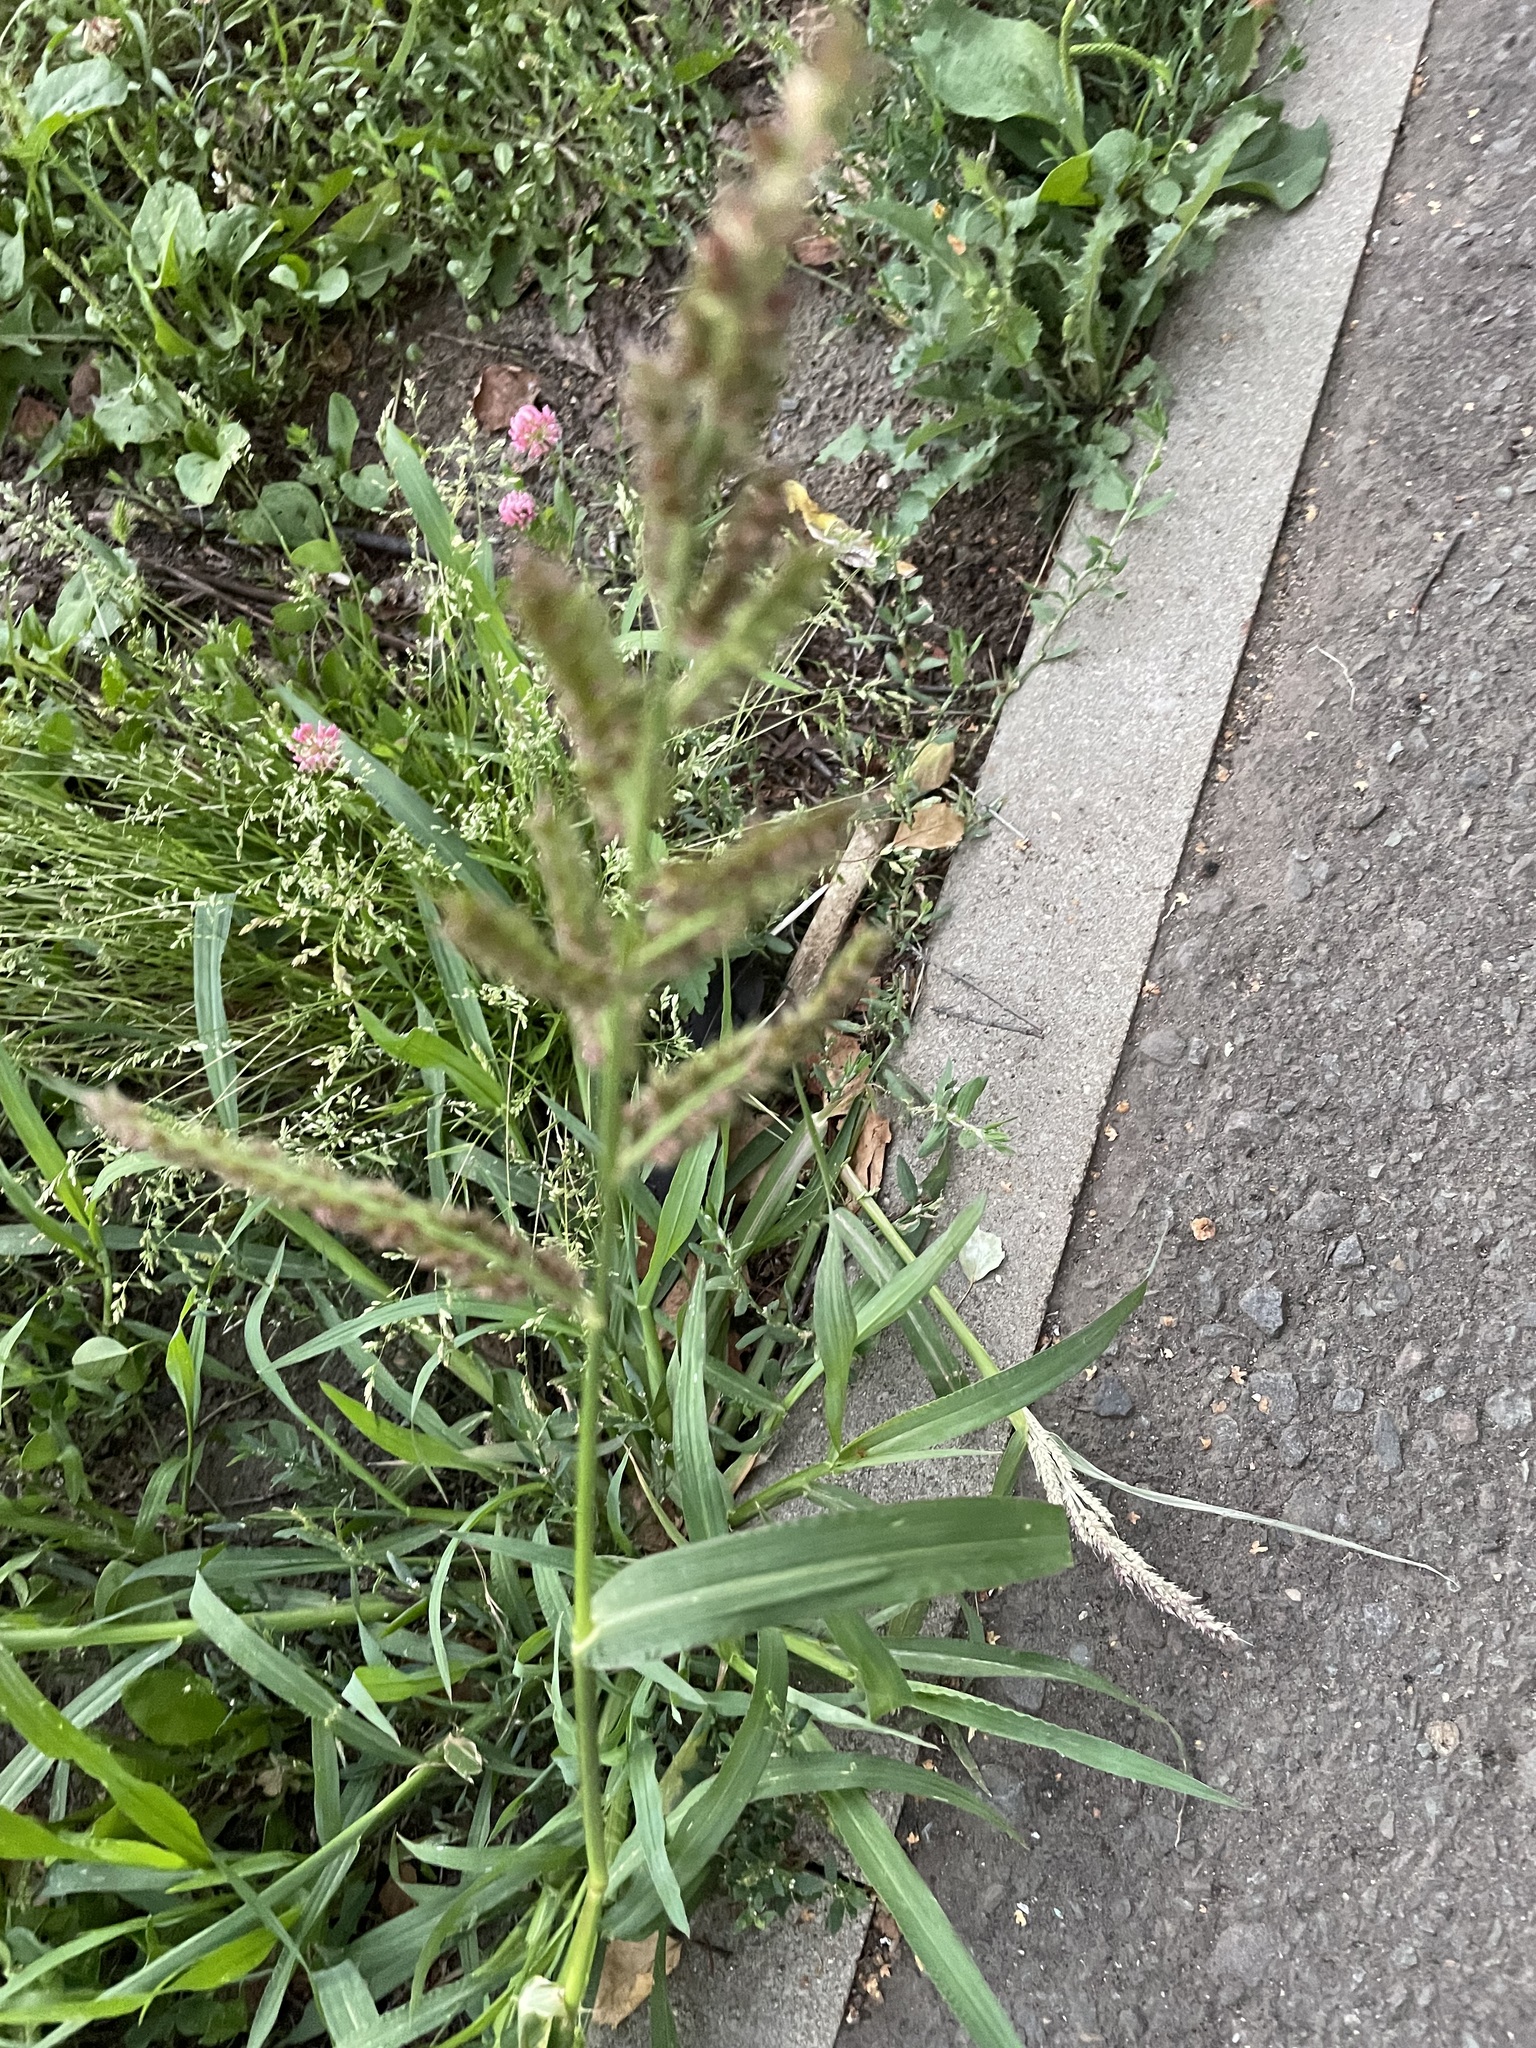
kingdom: Plantae
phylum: Tracheophyta
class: Liliopsida
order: Poales
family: Poaceae
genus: Echinochloa
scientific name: Echinochloa crus-galli
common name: Cockspur
